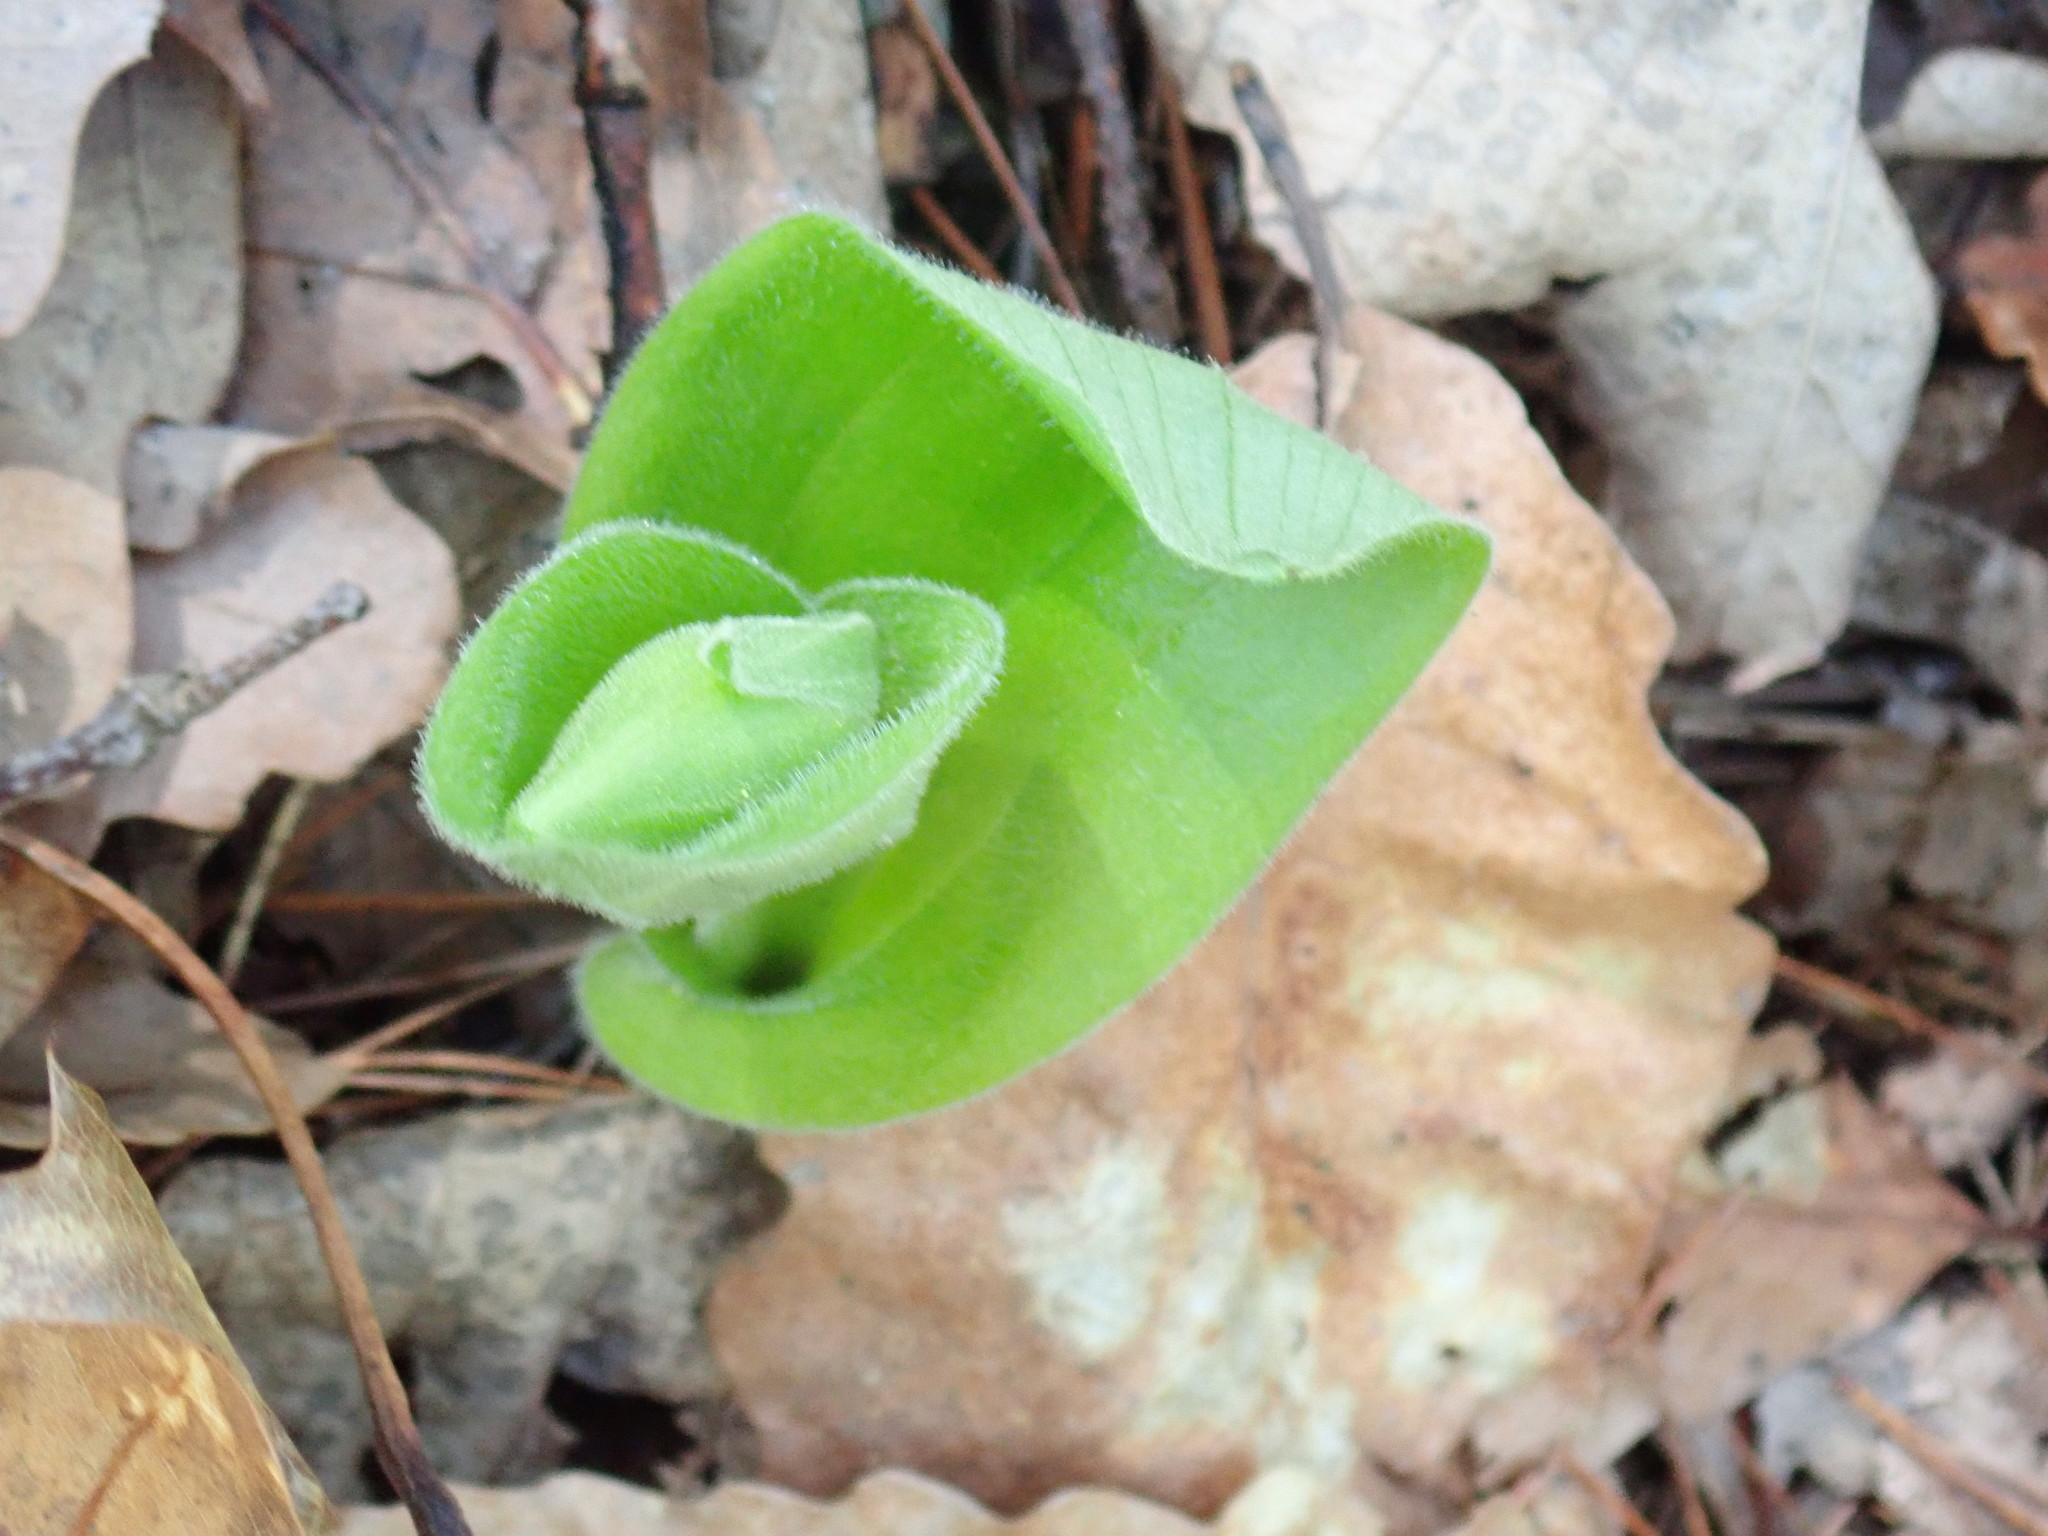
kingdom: Plantae
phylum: Tracheophyta
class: Liliopsida
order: Asparagales
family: Orchidaceae
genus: Cypripedium
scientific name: Cypripedium acaule
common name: Pink lady's-slipper
